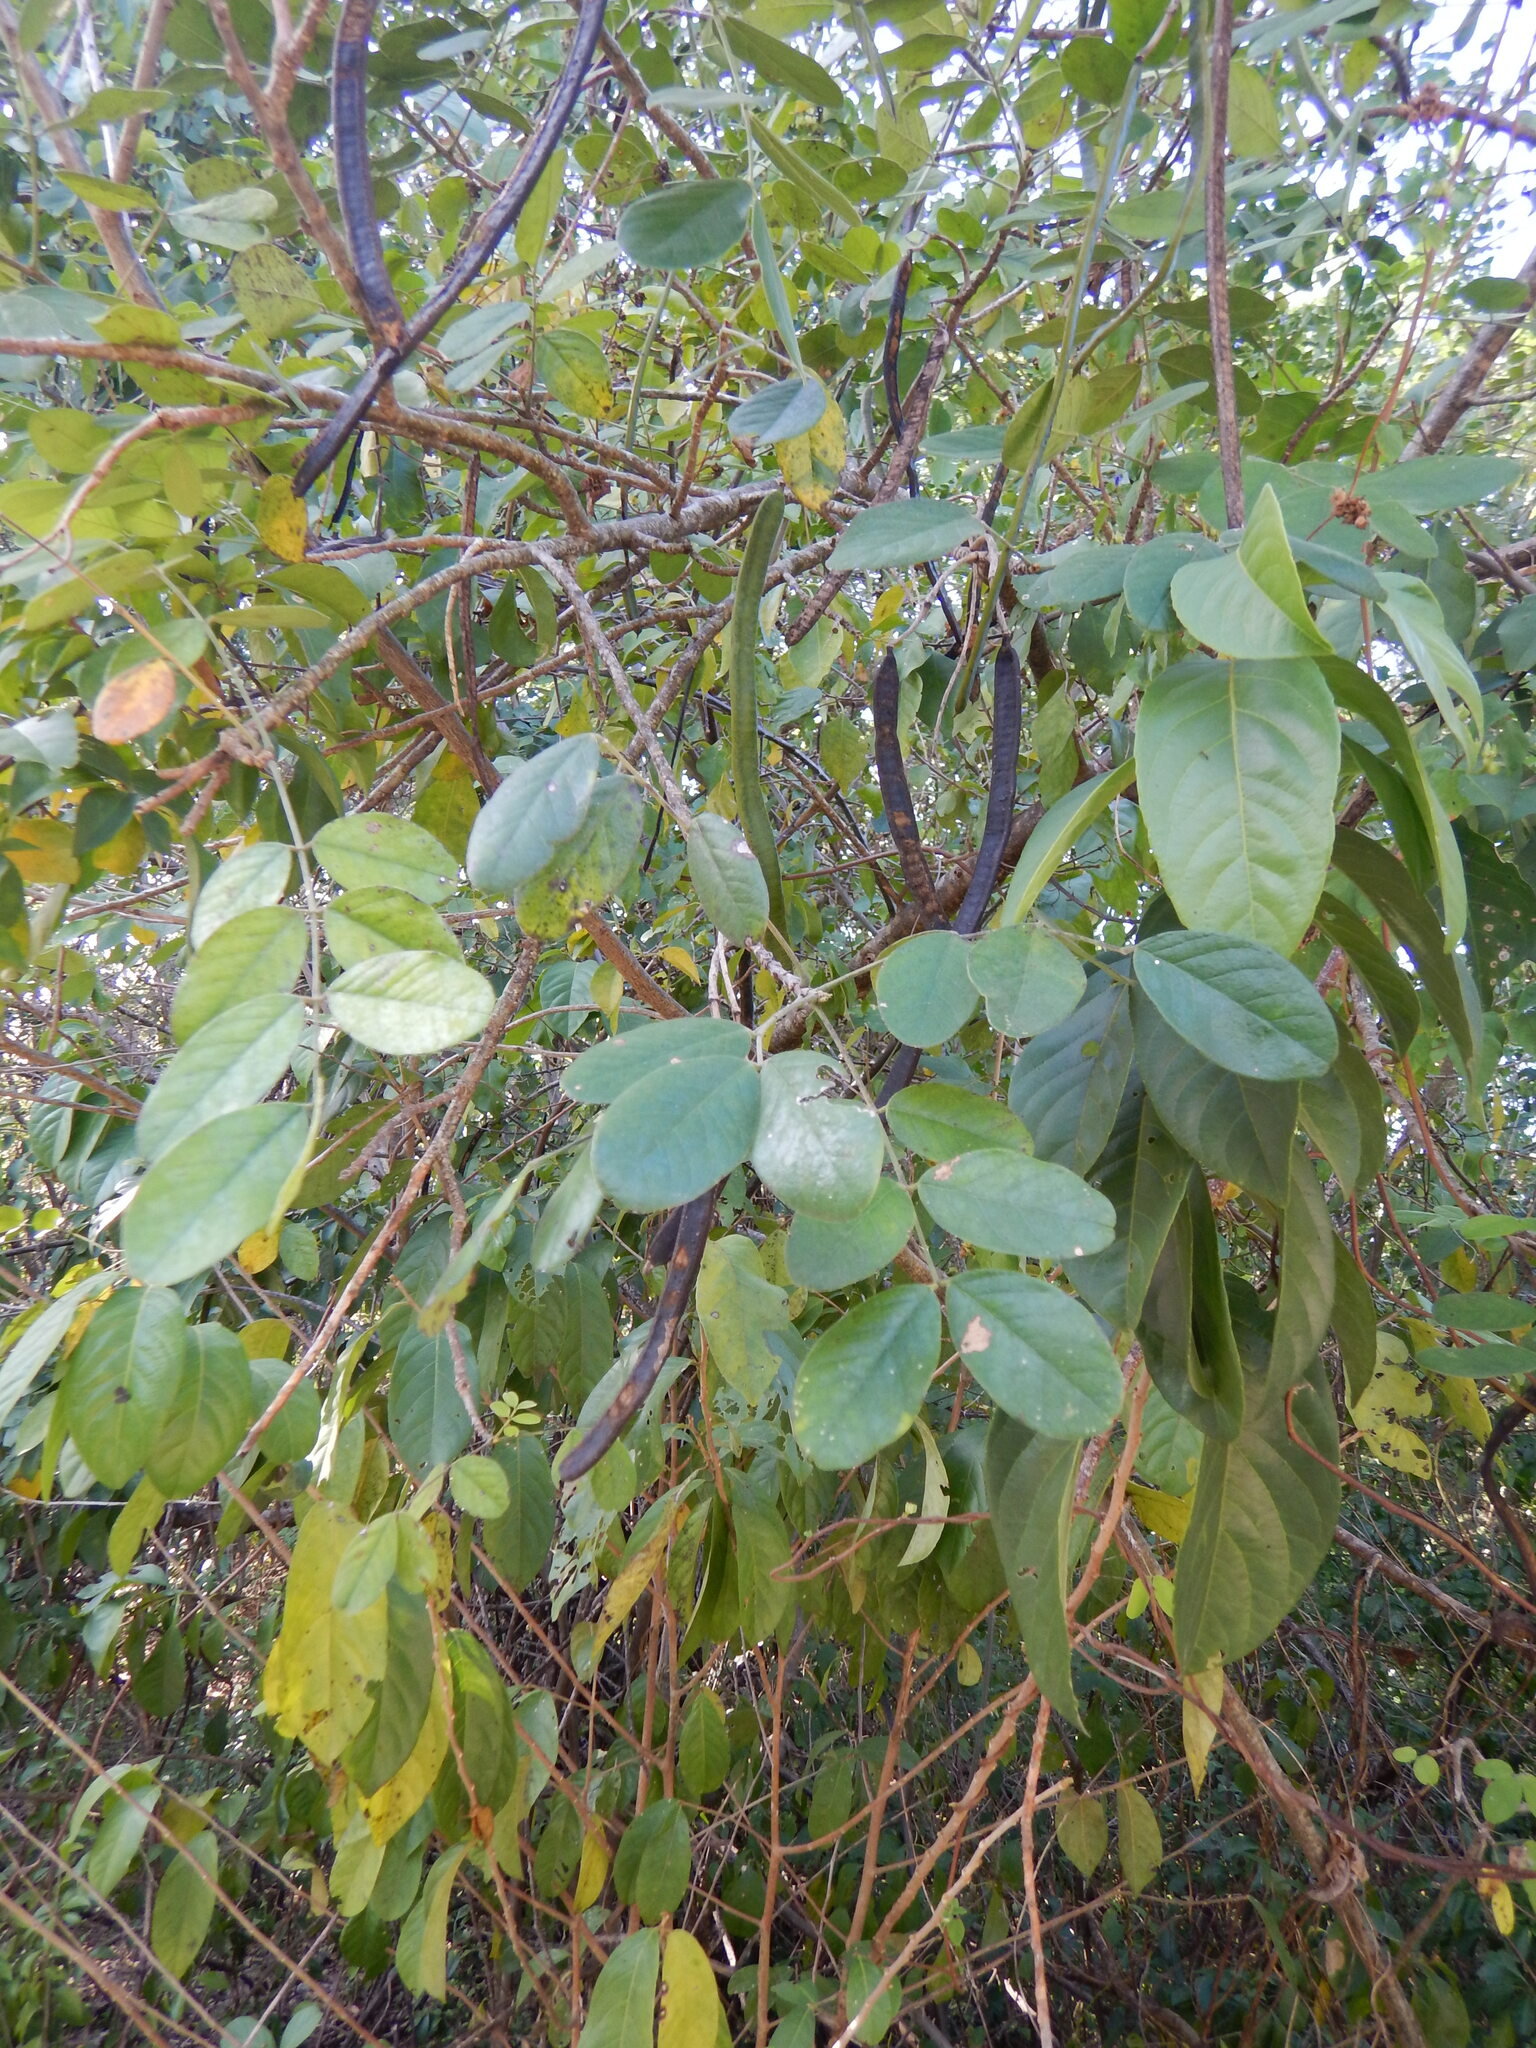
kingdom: Plantae
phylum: Tracheophyta
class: Magnoliopsida
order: Fabales
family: Fabaceae
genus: Senna
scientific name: Senna atomaria
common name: Flor de san jose
